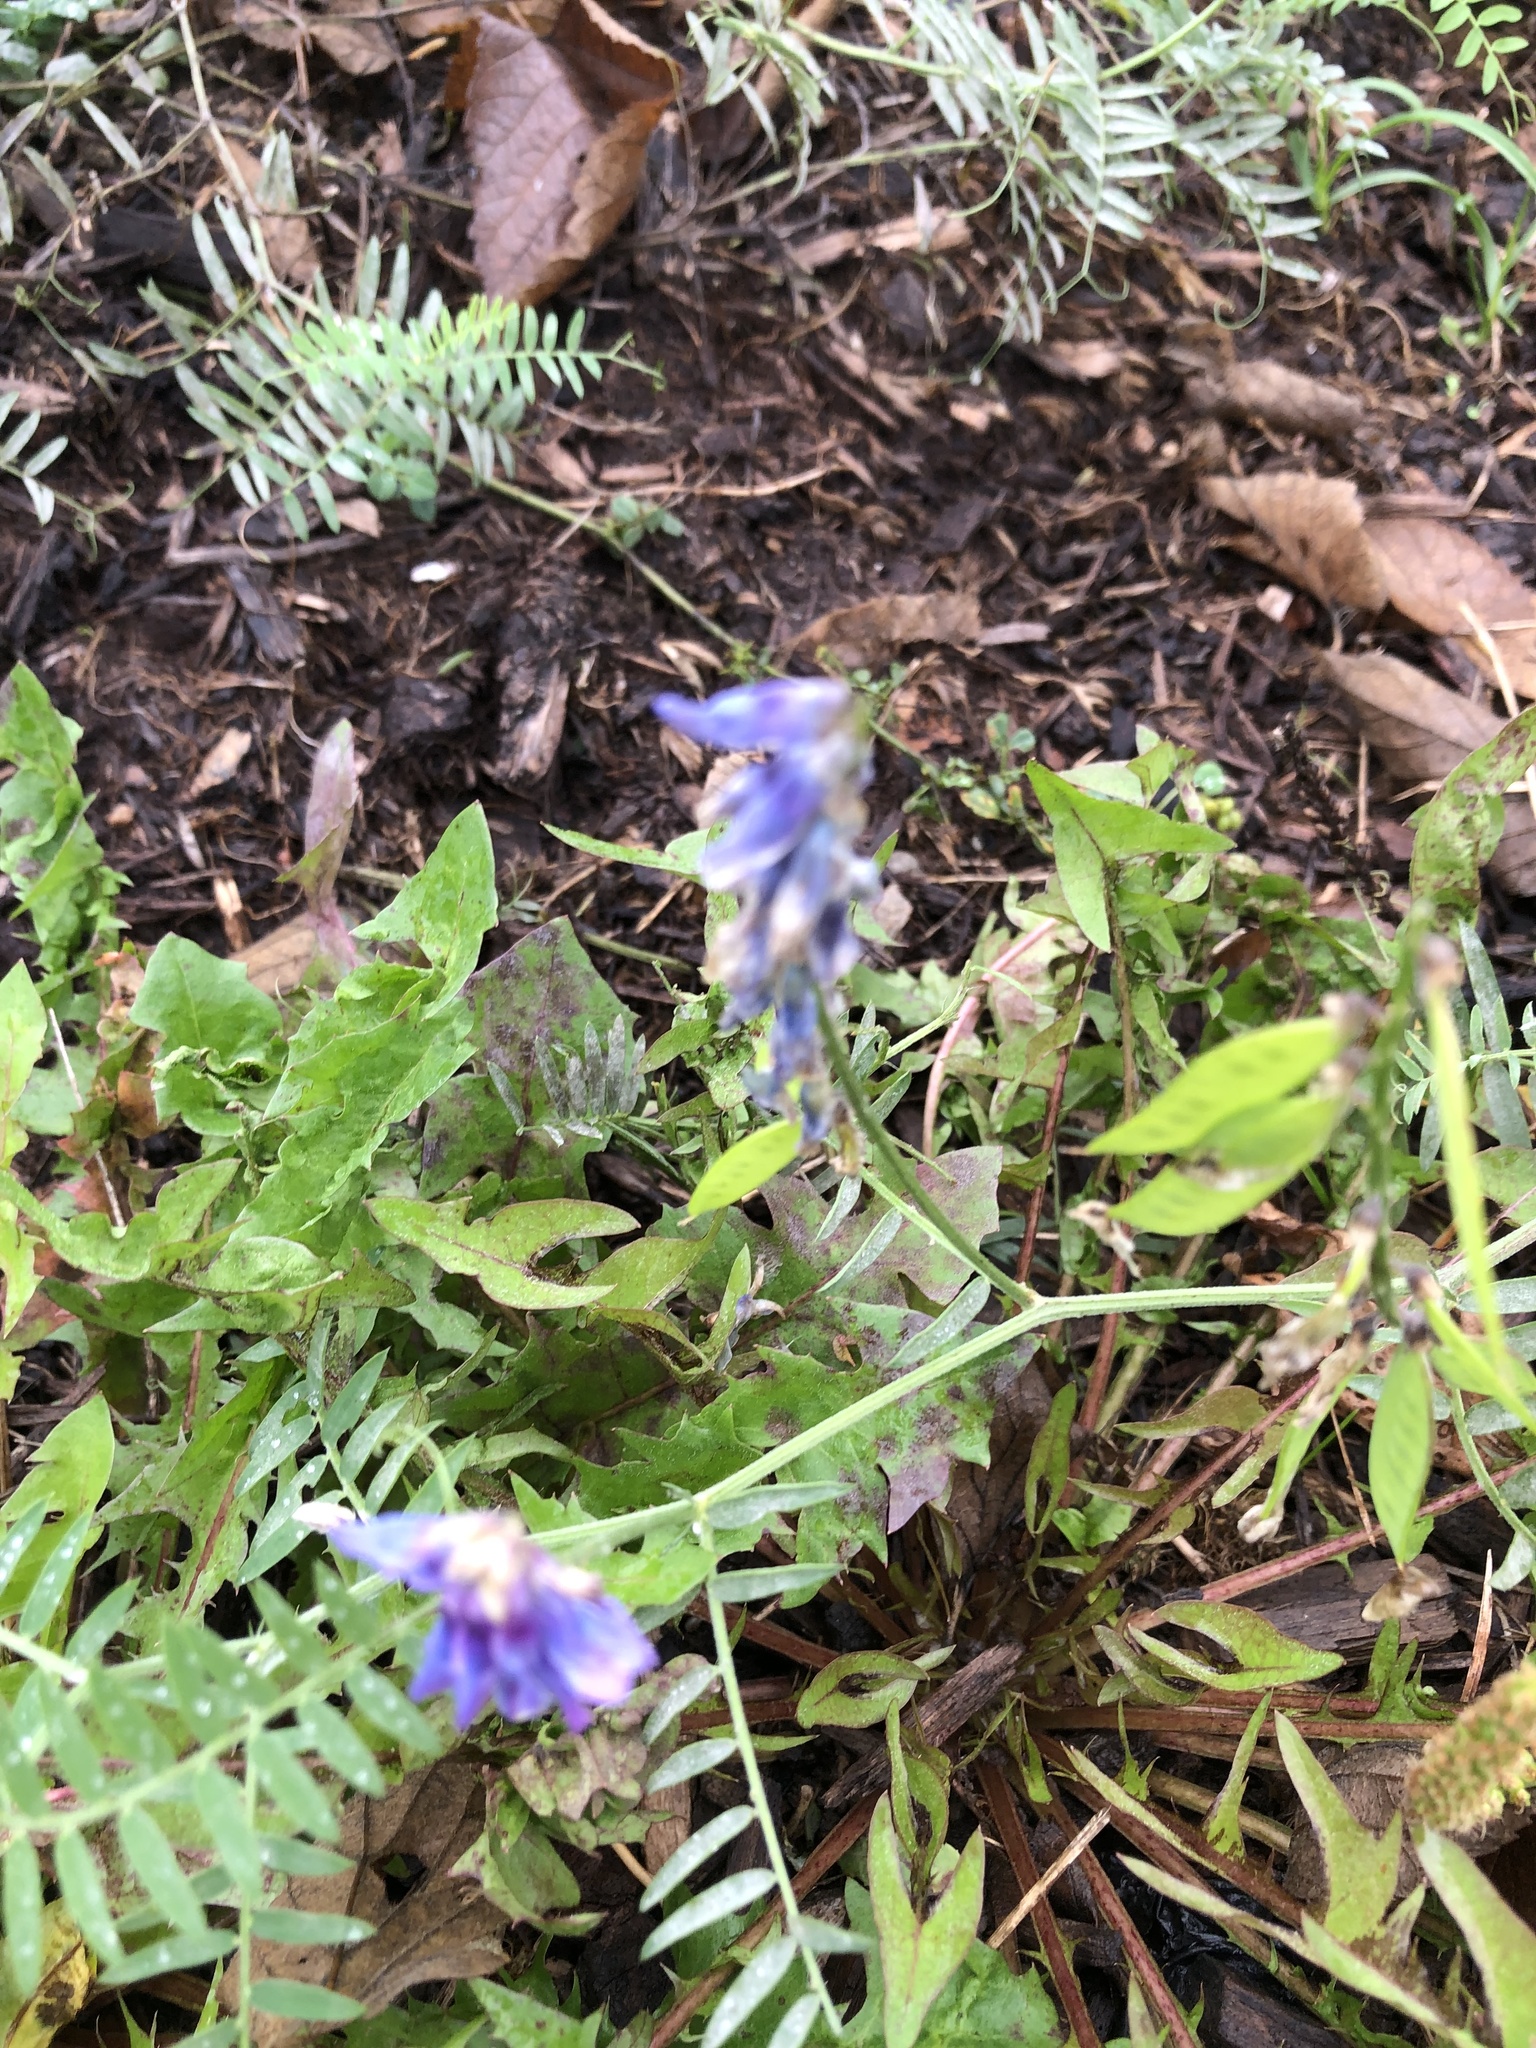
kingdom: Plantae
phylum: Tracheophyta
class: Magnoliopsida
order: Fabales
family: Fabaceae
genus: Vicia
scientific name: Vicia cracca
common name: Bird vetch
